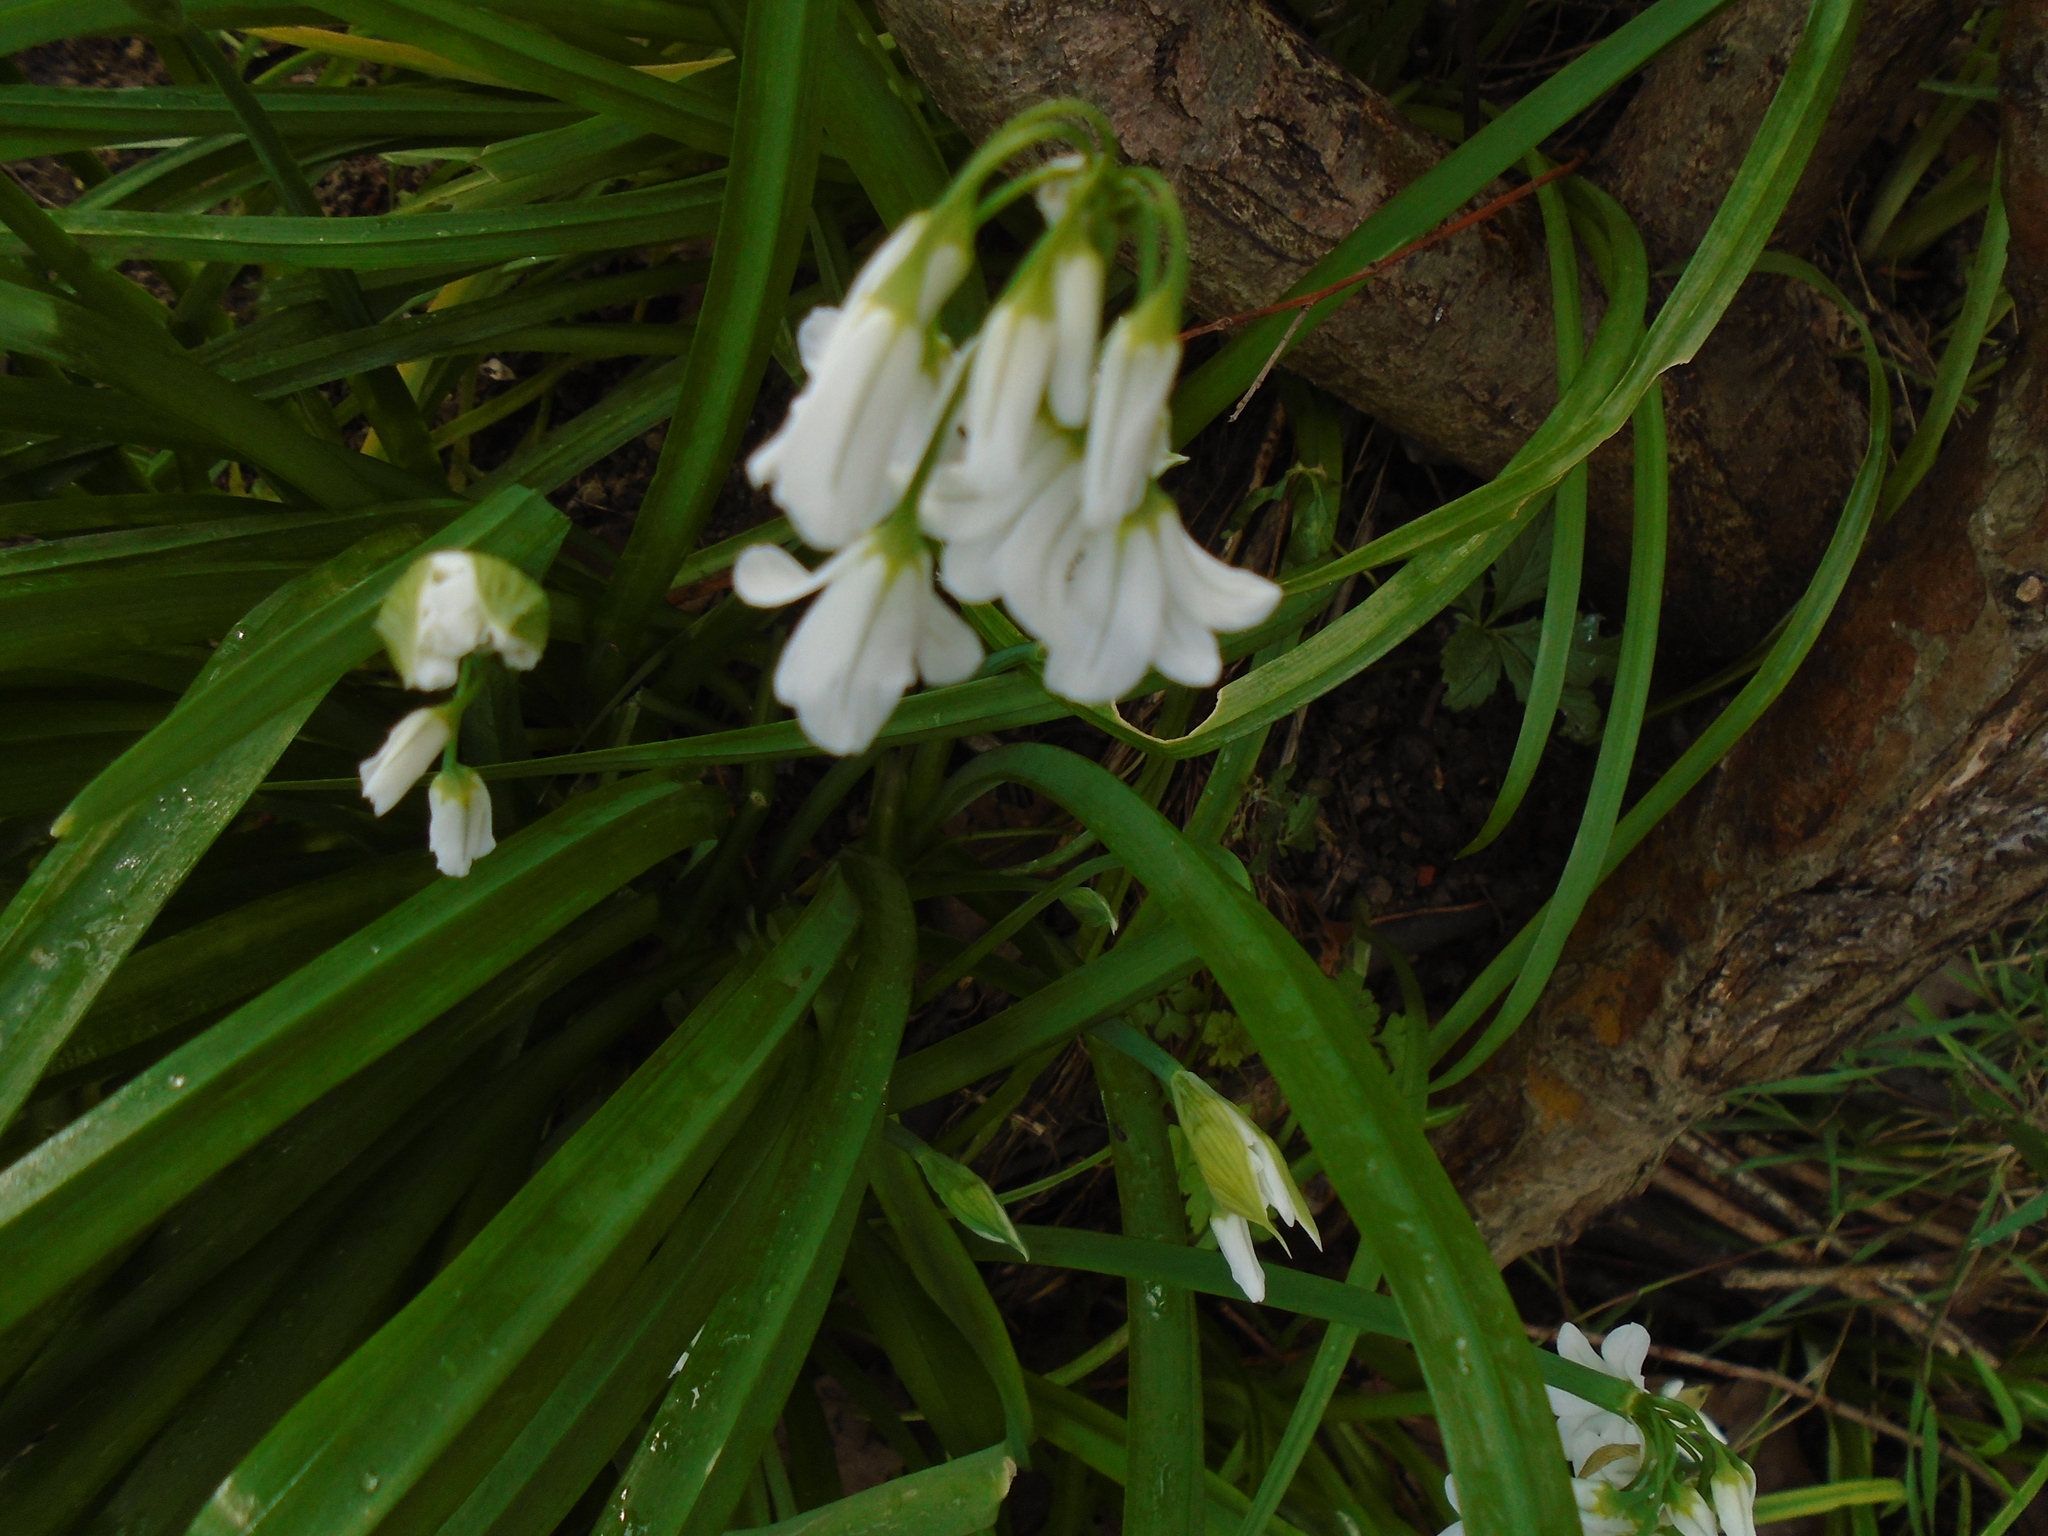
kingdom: Plantae
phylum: Tracheophyta
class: Liliopsida
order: Asparagales
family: Amaryllidaceae
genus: Allium
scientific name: Allium triquetrum
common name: Three-cornered garlic
